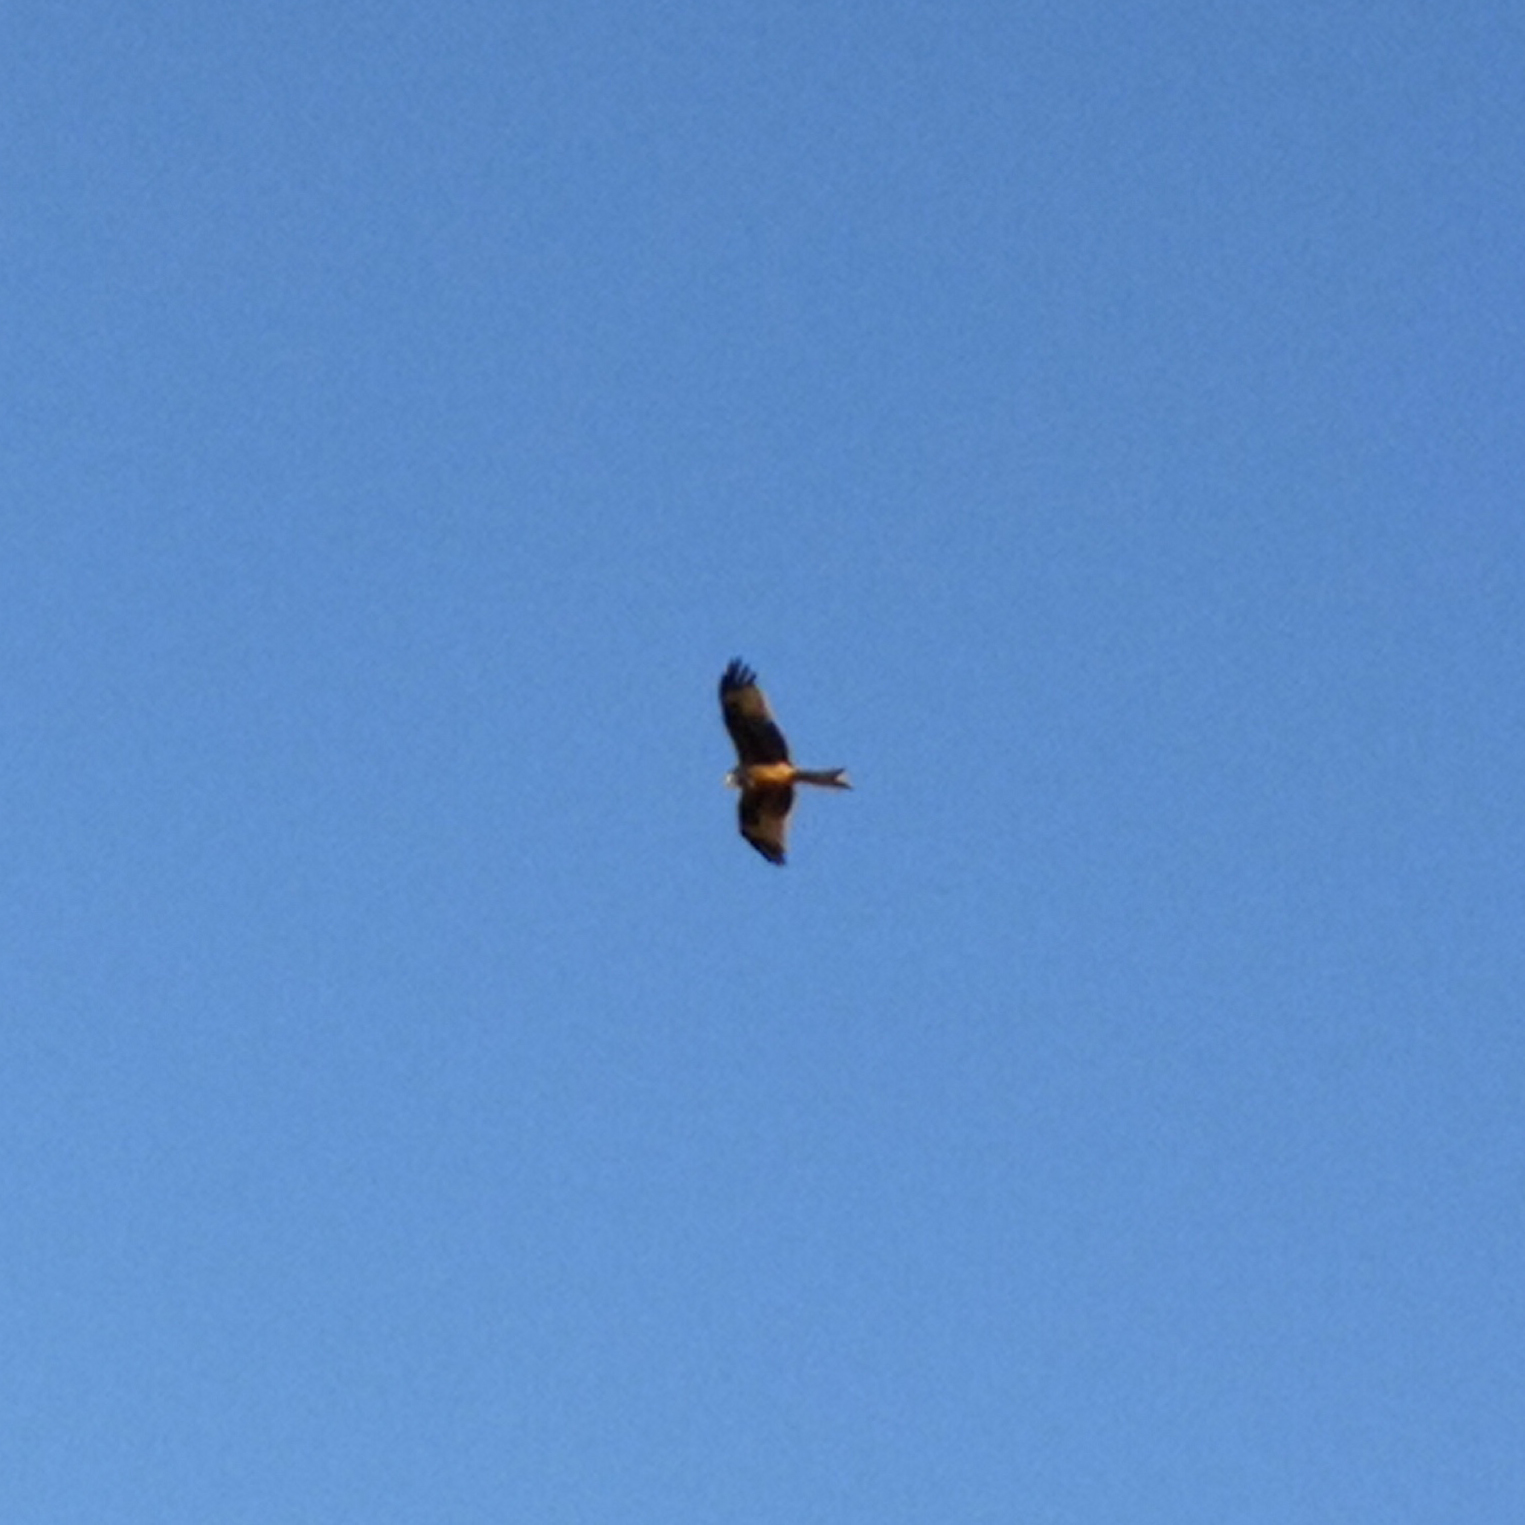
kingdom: Animalia
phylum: Chordata
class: Aves
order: Accipitriformes
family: Accipitridae
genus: Milvus
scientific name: Milvus milvus
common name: Red kite
